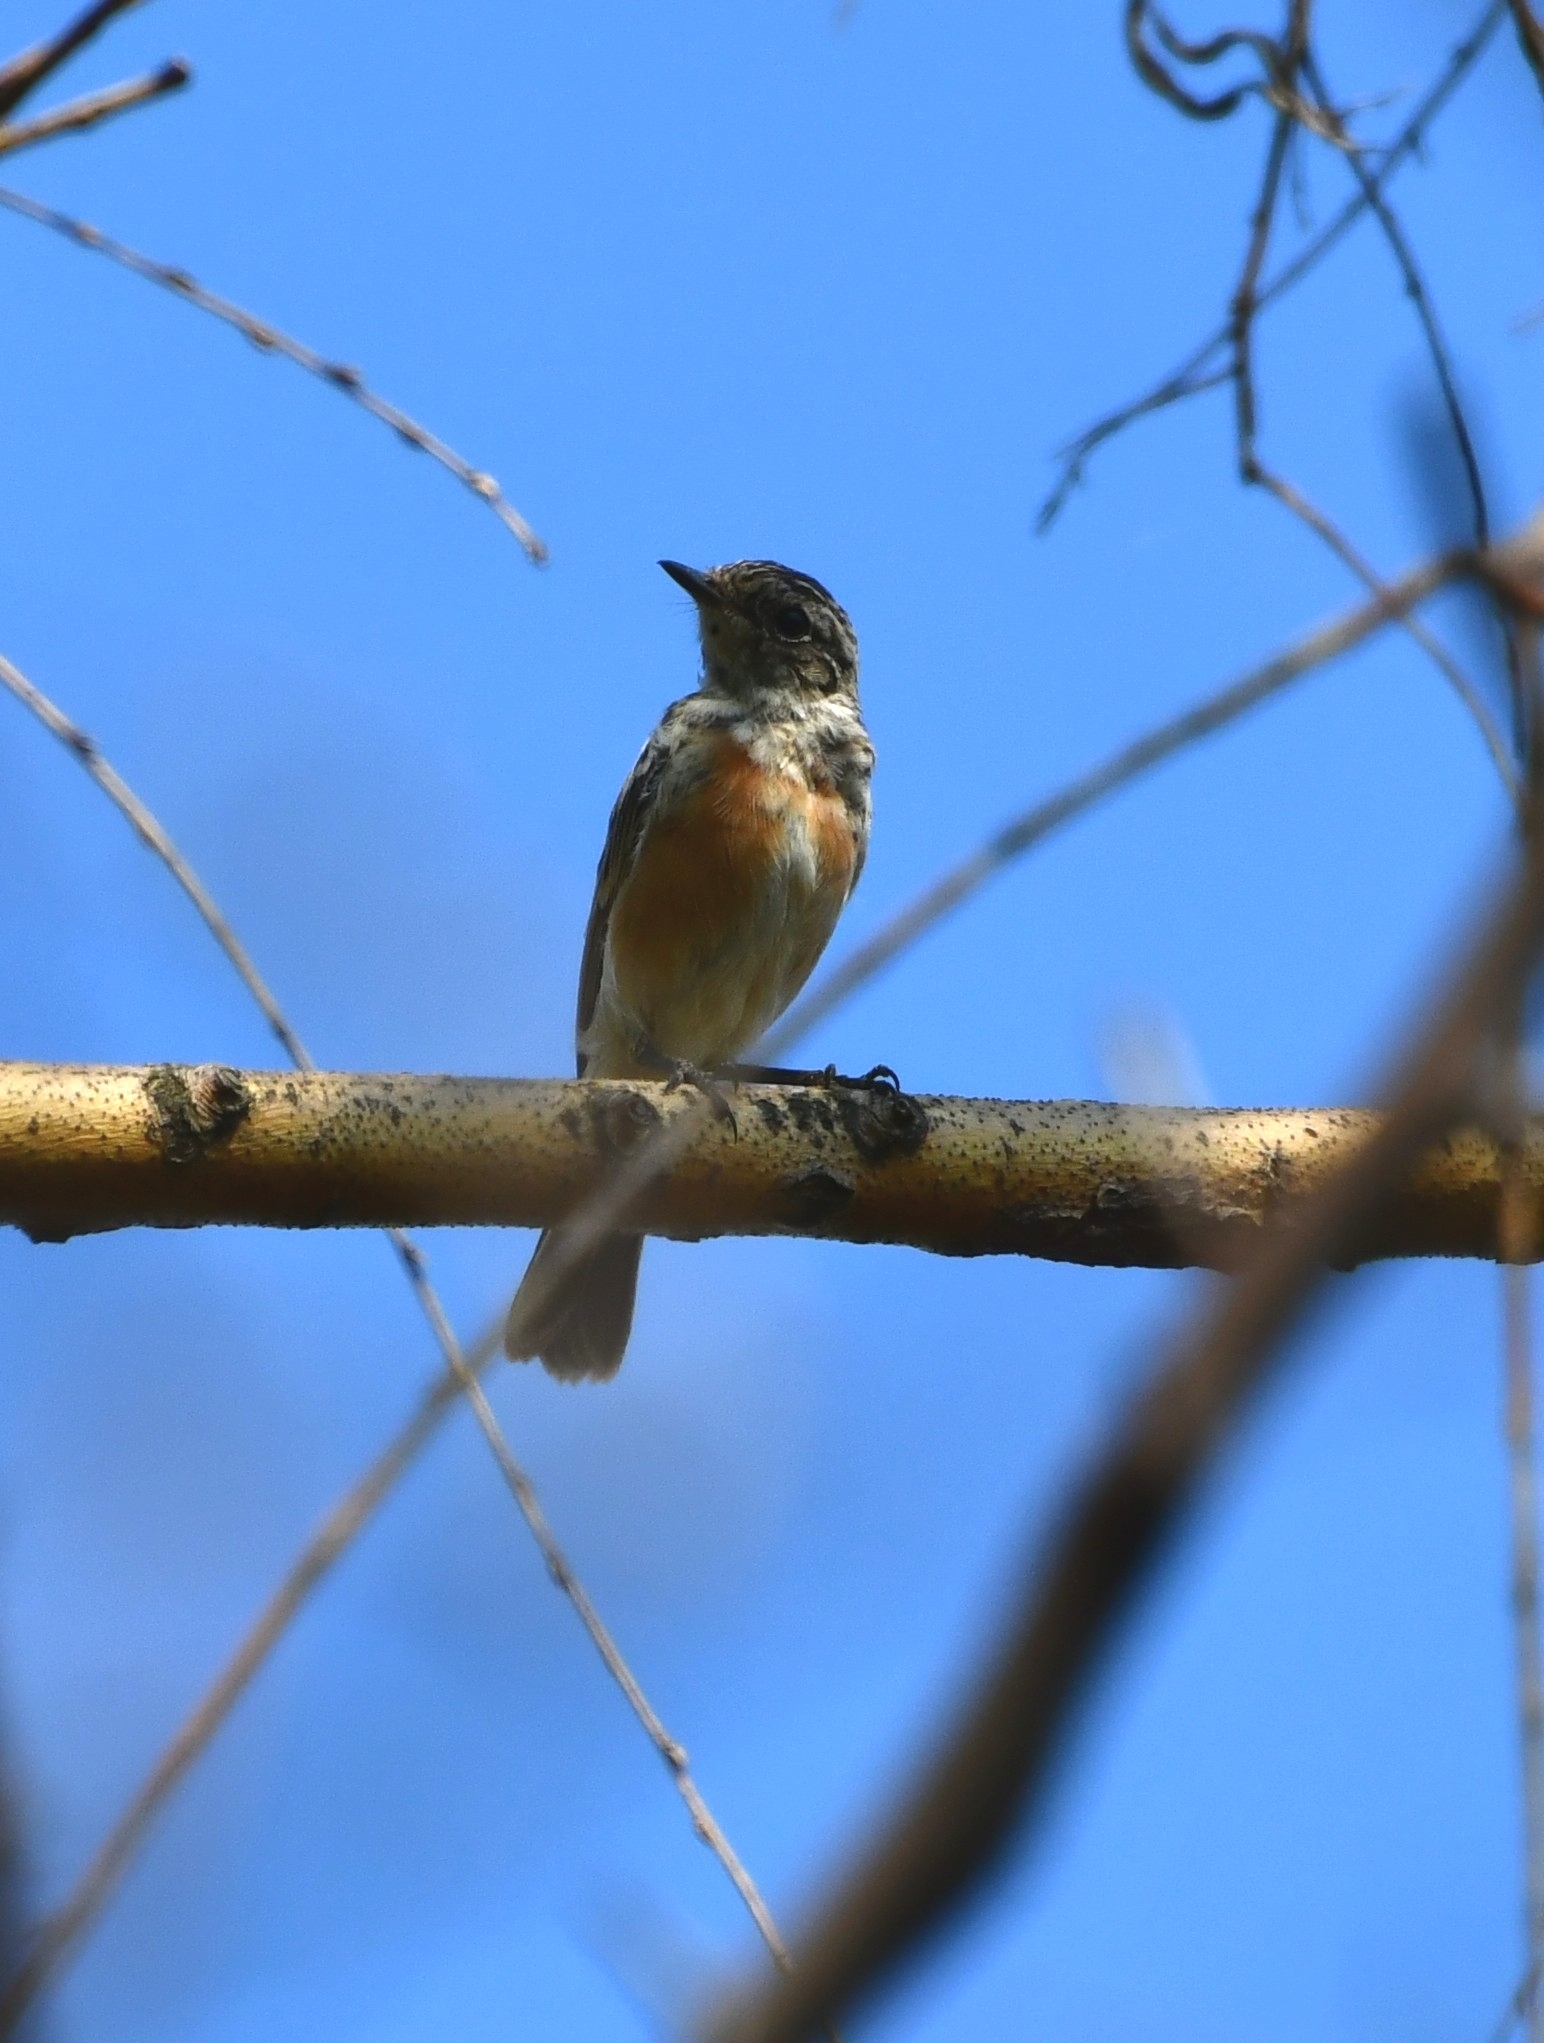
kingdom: Animalia
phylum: Chordata
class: Aves
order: Passeriformes
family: Muscicapidae
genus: Saxicola
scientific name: Saxicola maurus
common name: Siberian stonechat
